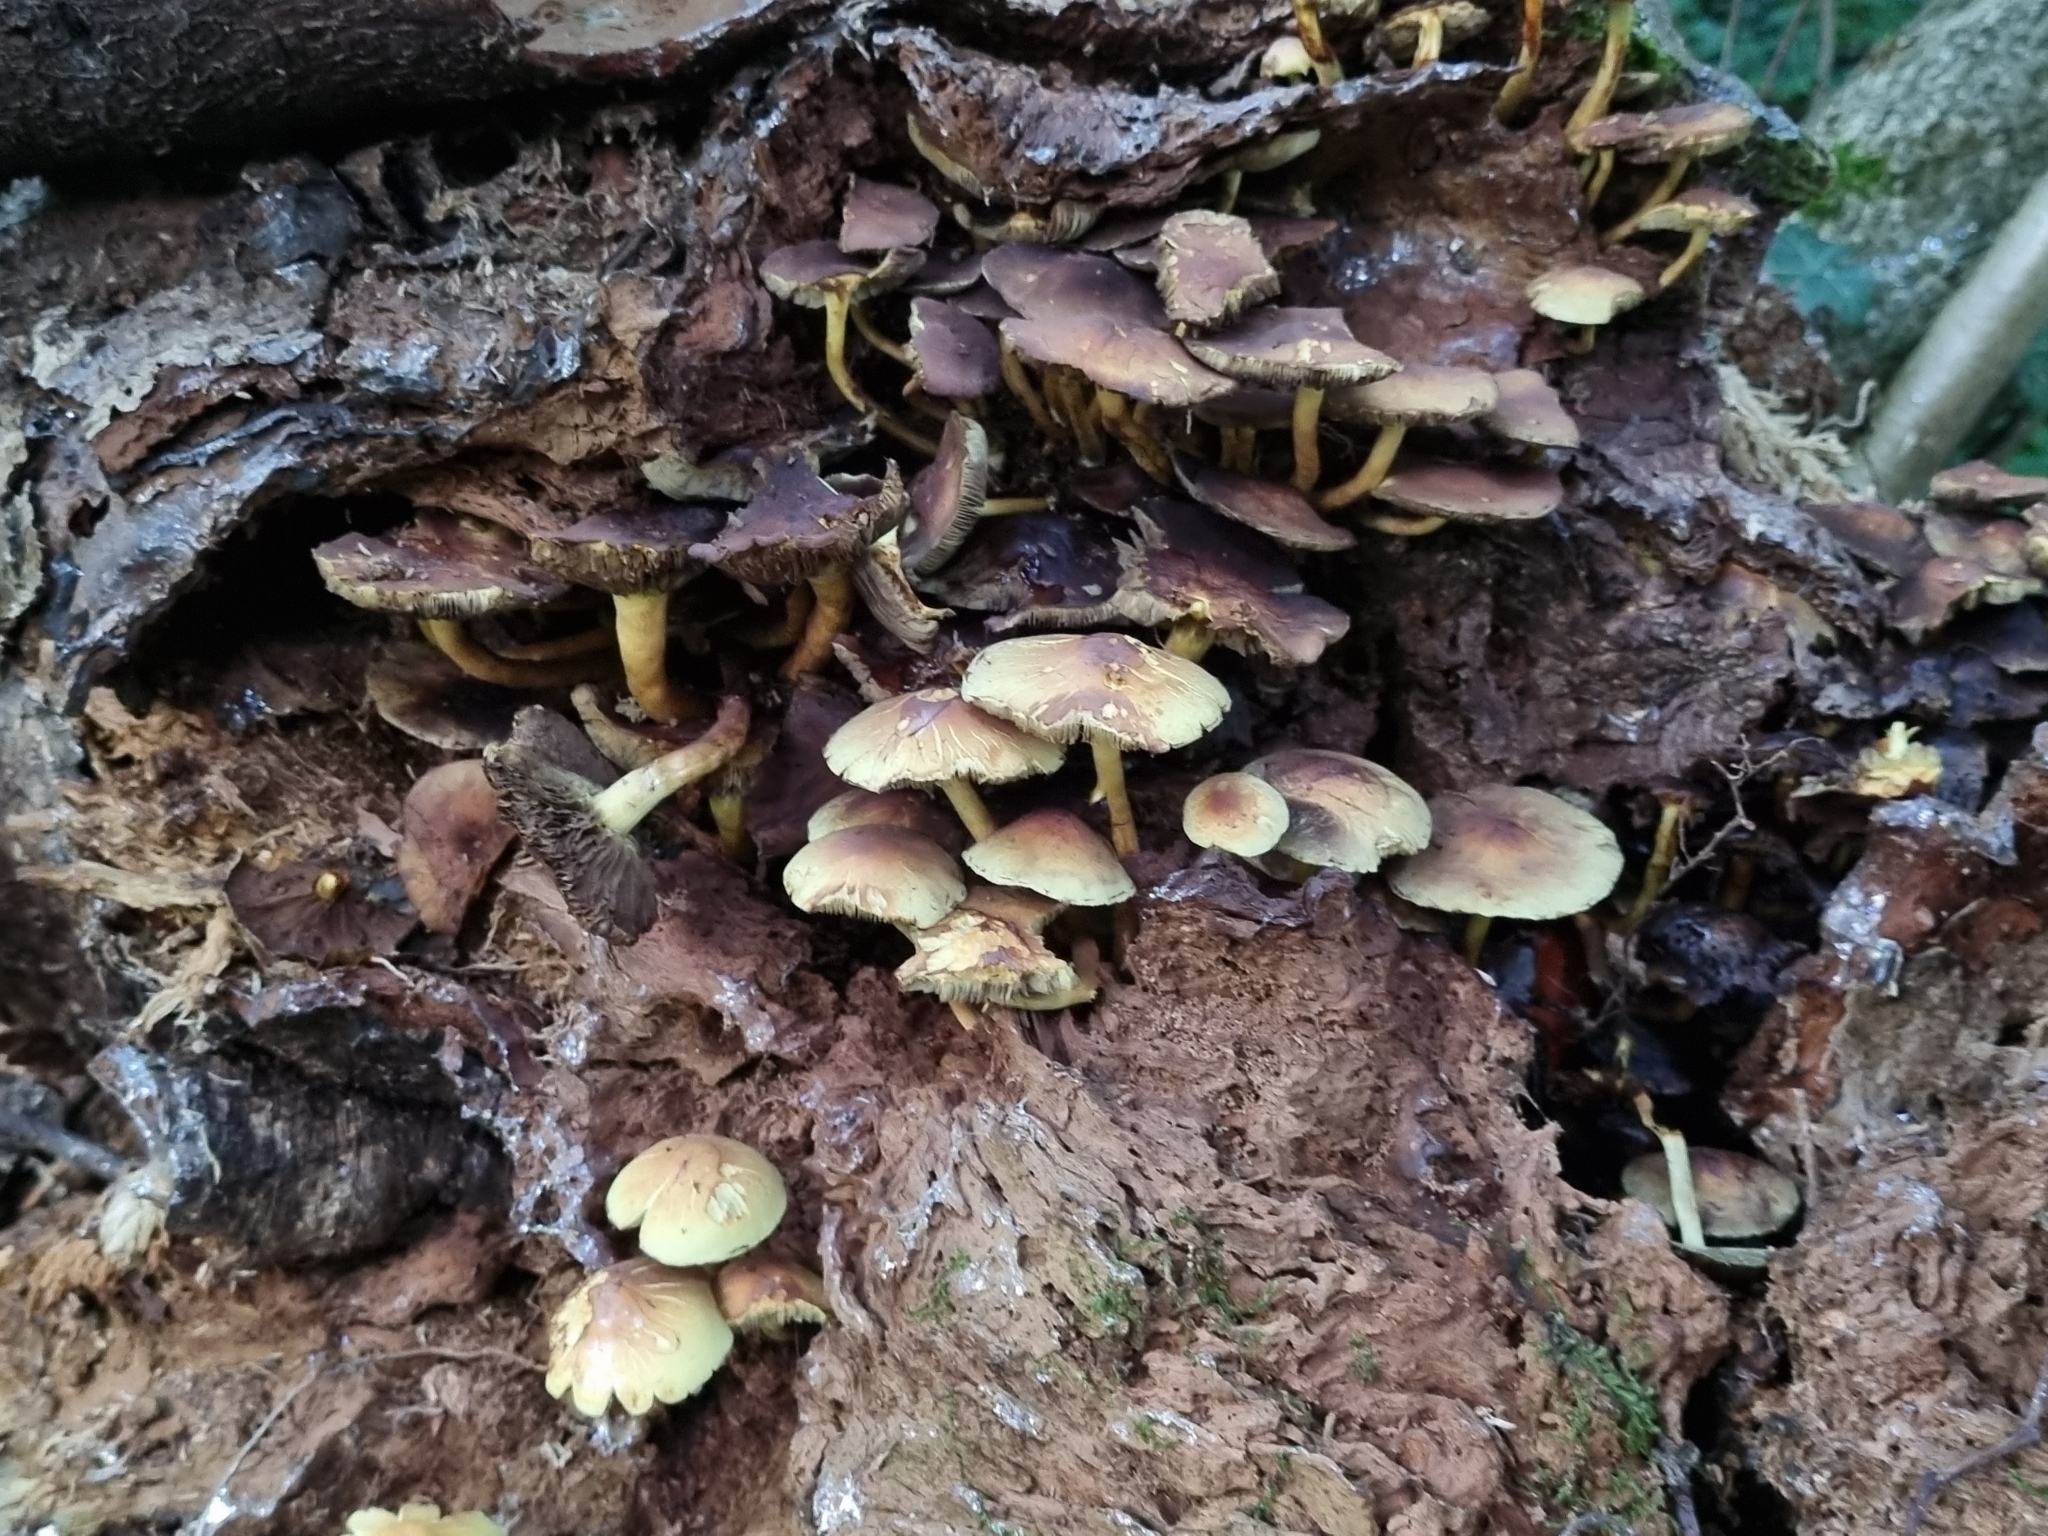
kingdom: Fungi
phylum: Basidiomycota
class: Agaricomycetes
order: Agaricales
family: Strophariaceae
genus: Hypholoma
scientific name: Hypholoma fasciculare
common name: Sulphur tuft
